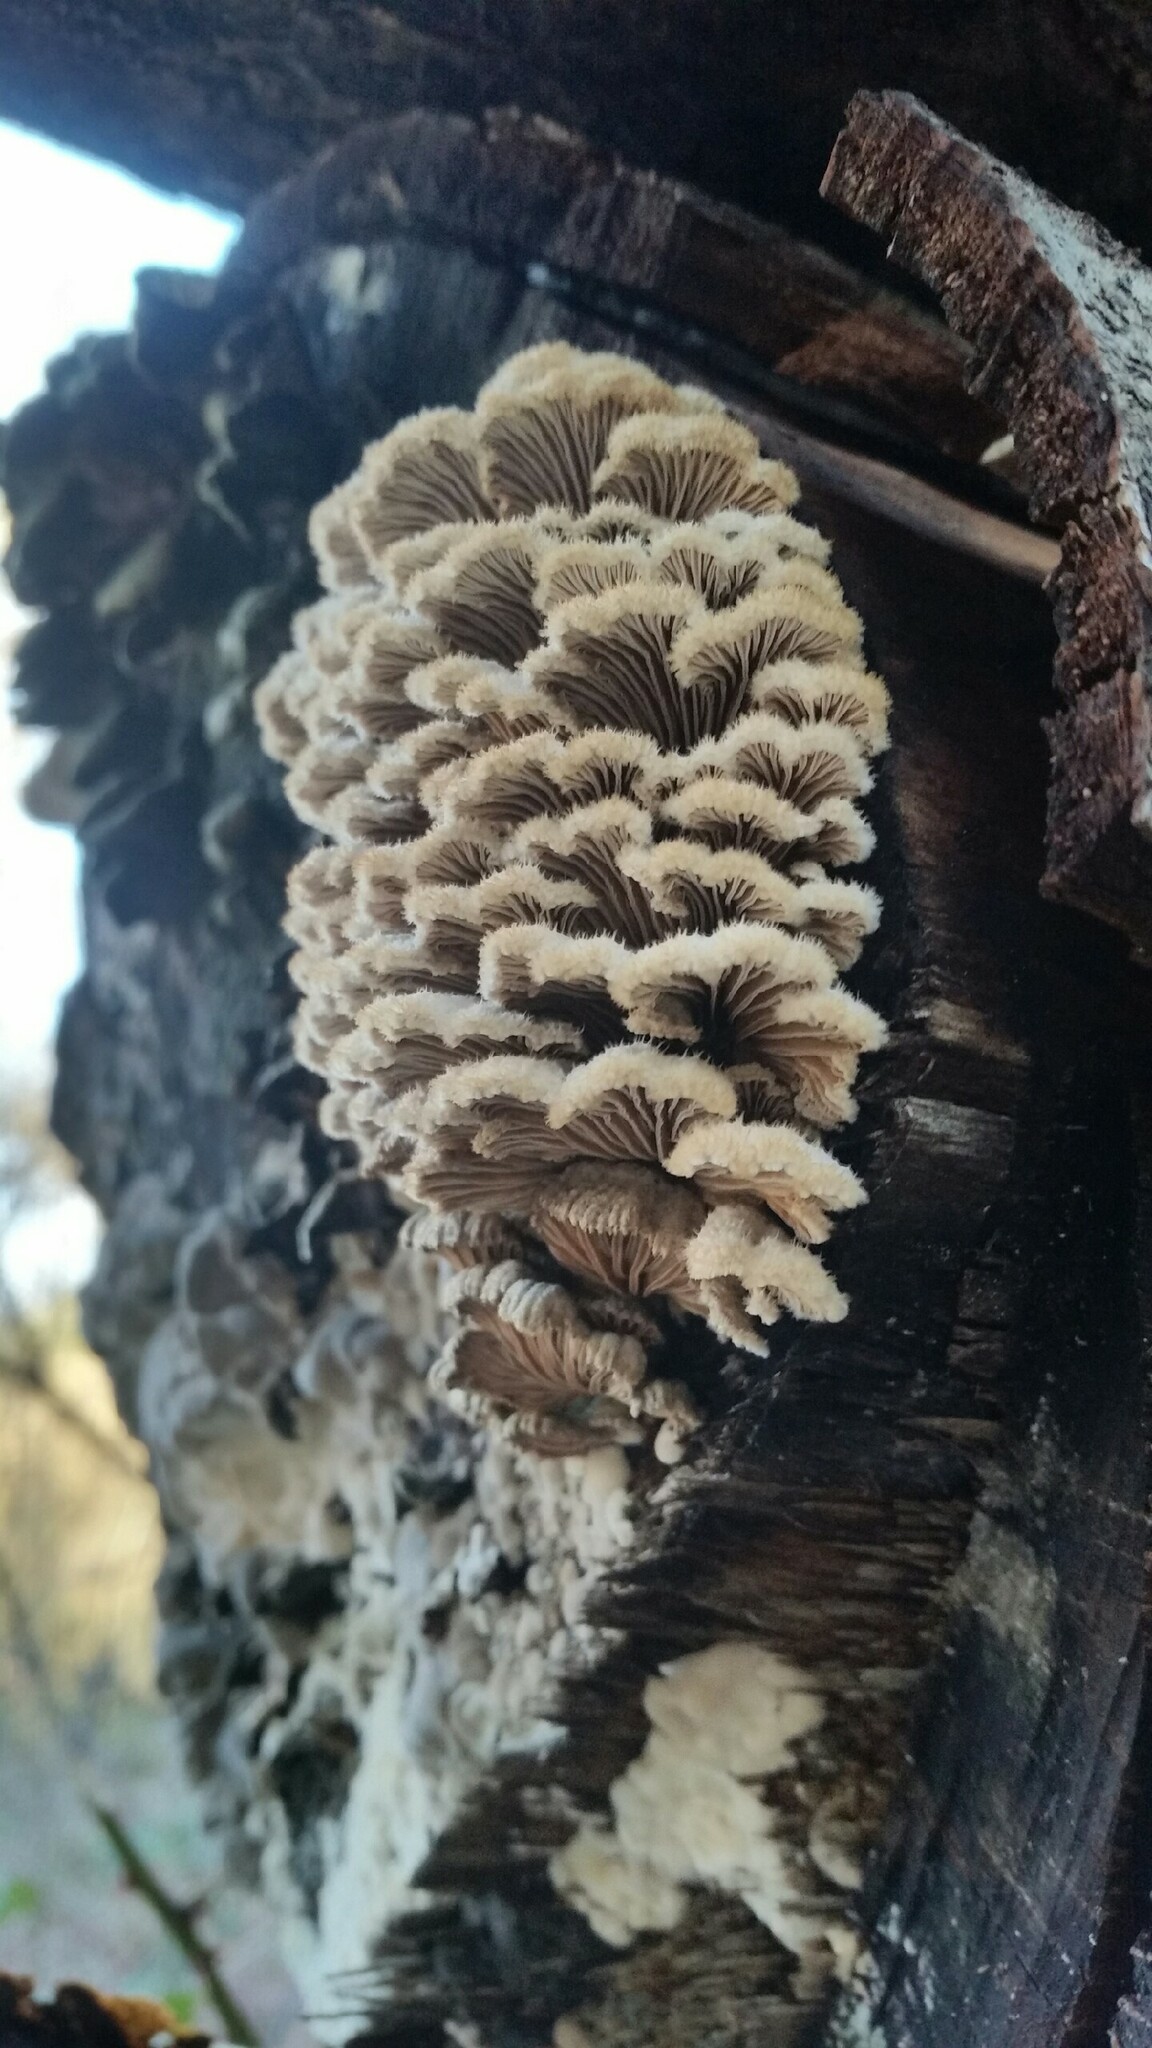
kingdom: Fungi
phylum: Basidiomycota
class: Agaricomycetes
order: Agaricales
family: Schizophyllaceae
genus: Schizophyllum
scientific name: Schizophyllum commune
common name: Common porecrust
